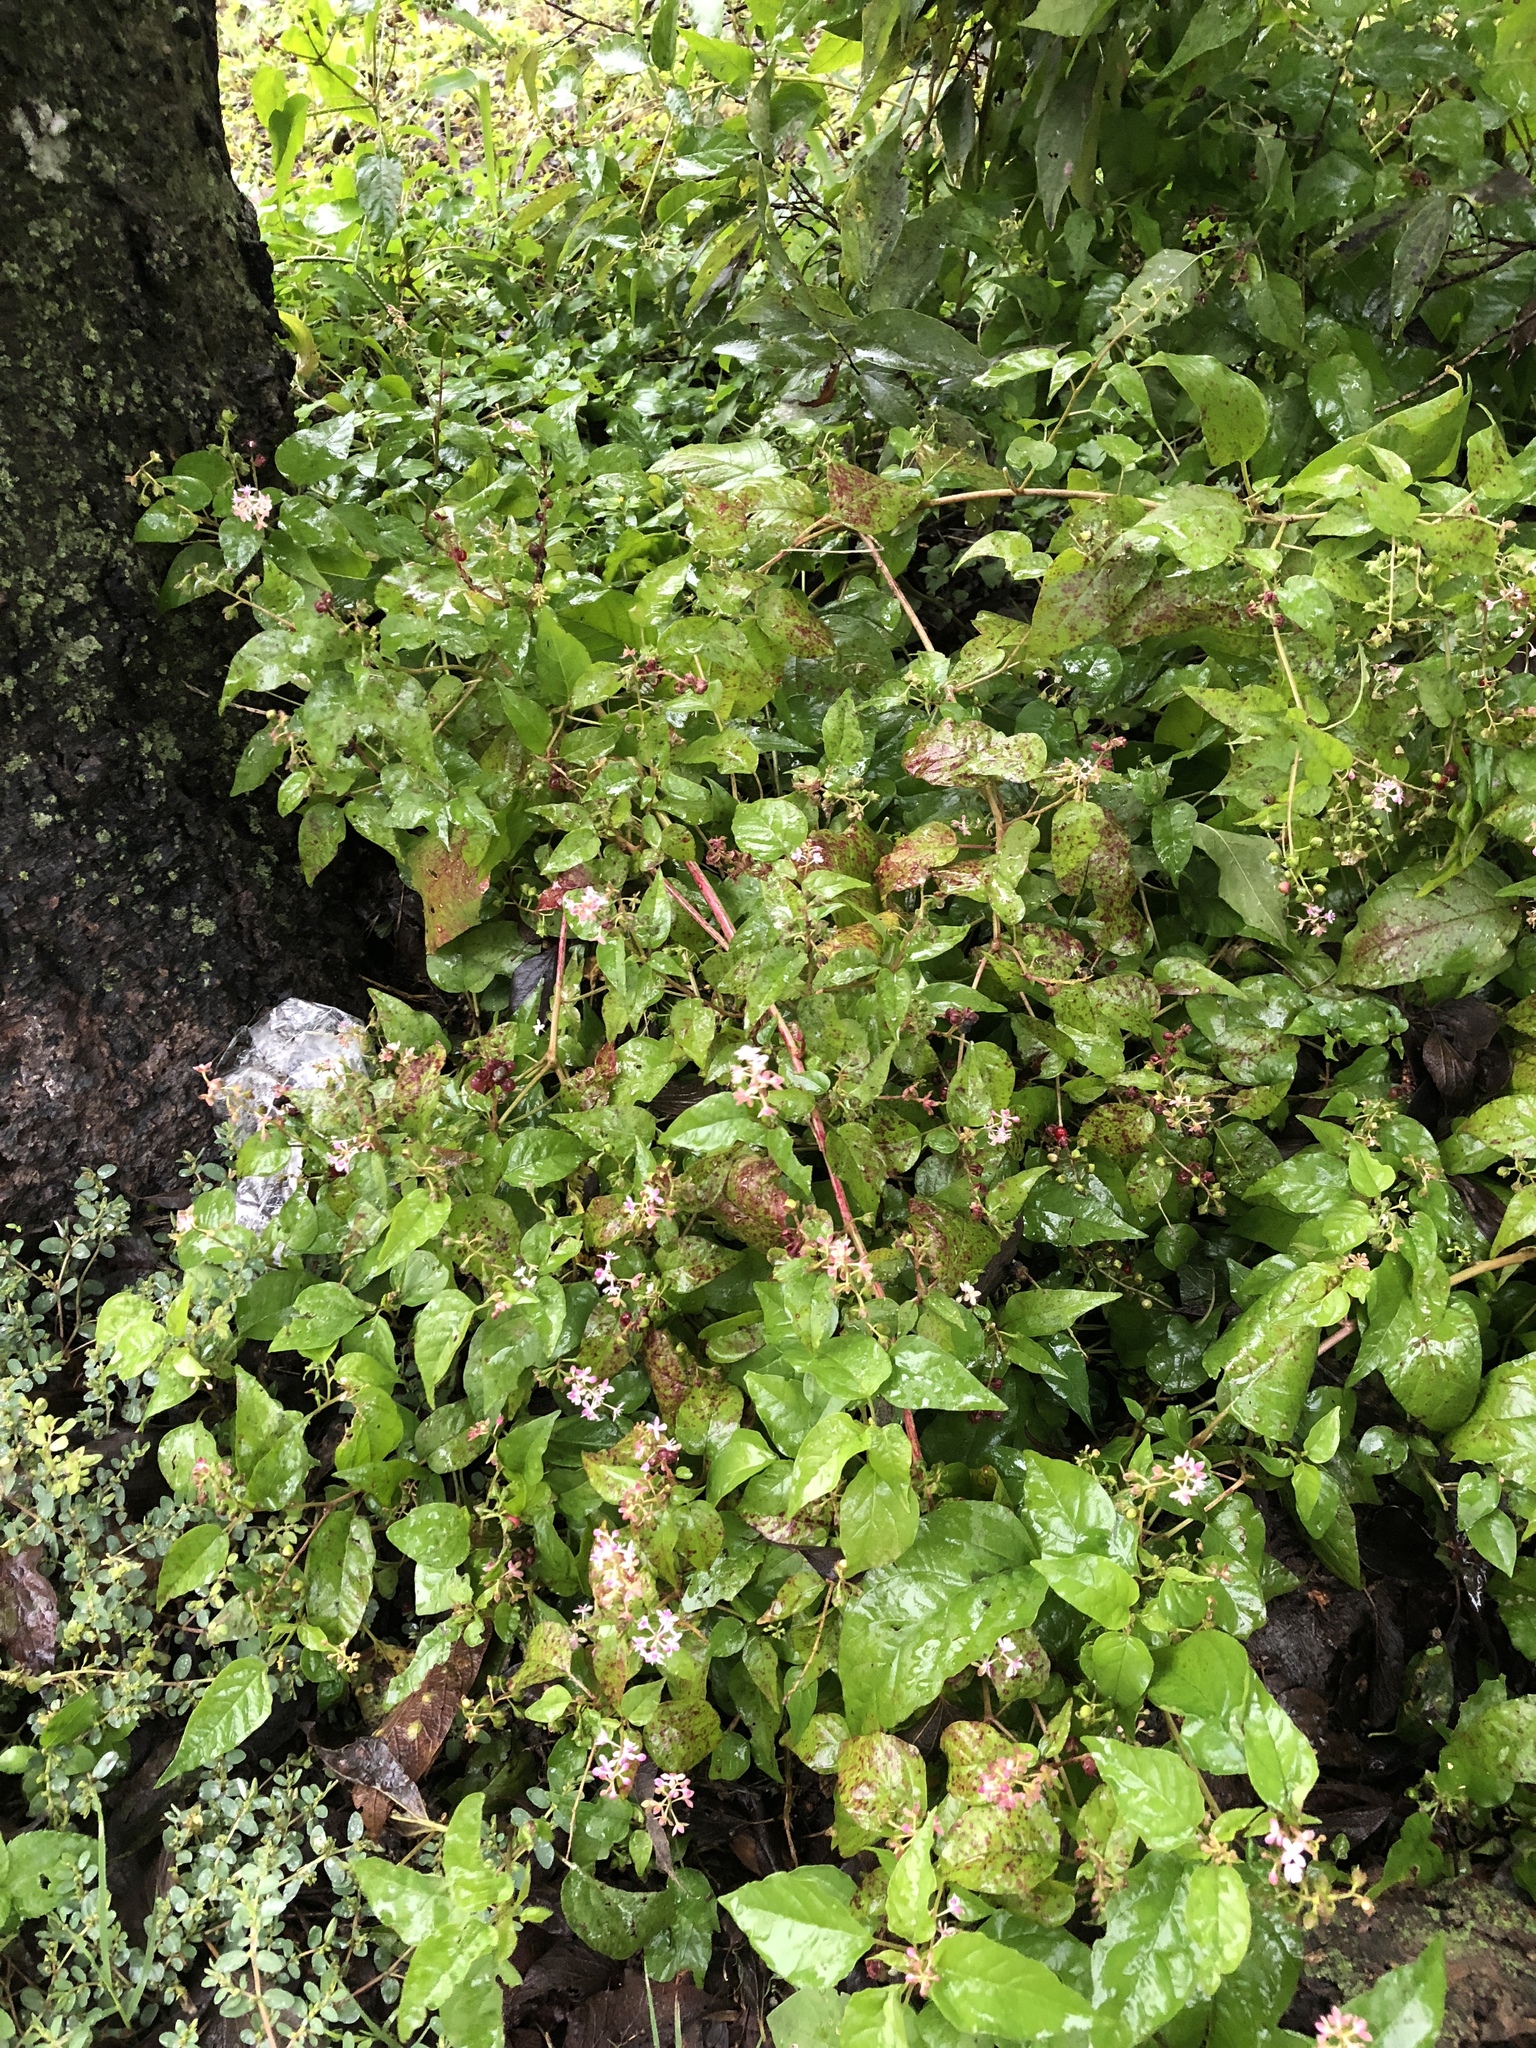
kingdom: Plantae
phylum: Tracheophyta
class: Magnoliopsida
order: Caryophyllales
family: Phytolaccaceae
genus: Rivina
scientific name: Rivina humilis
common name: Rougeplant
